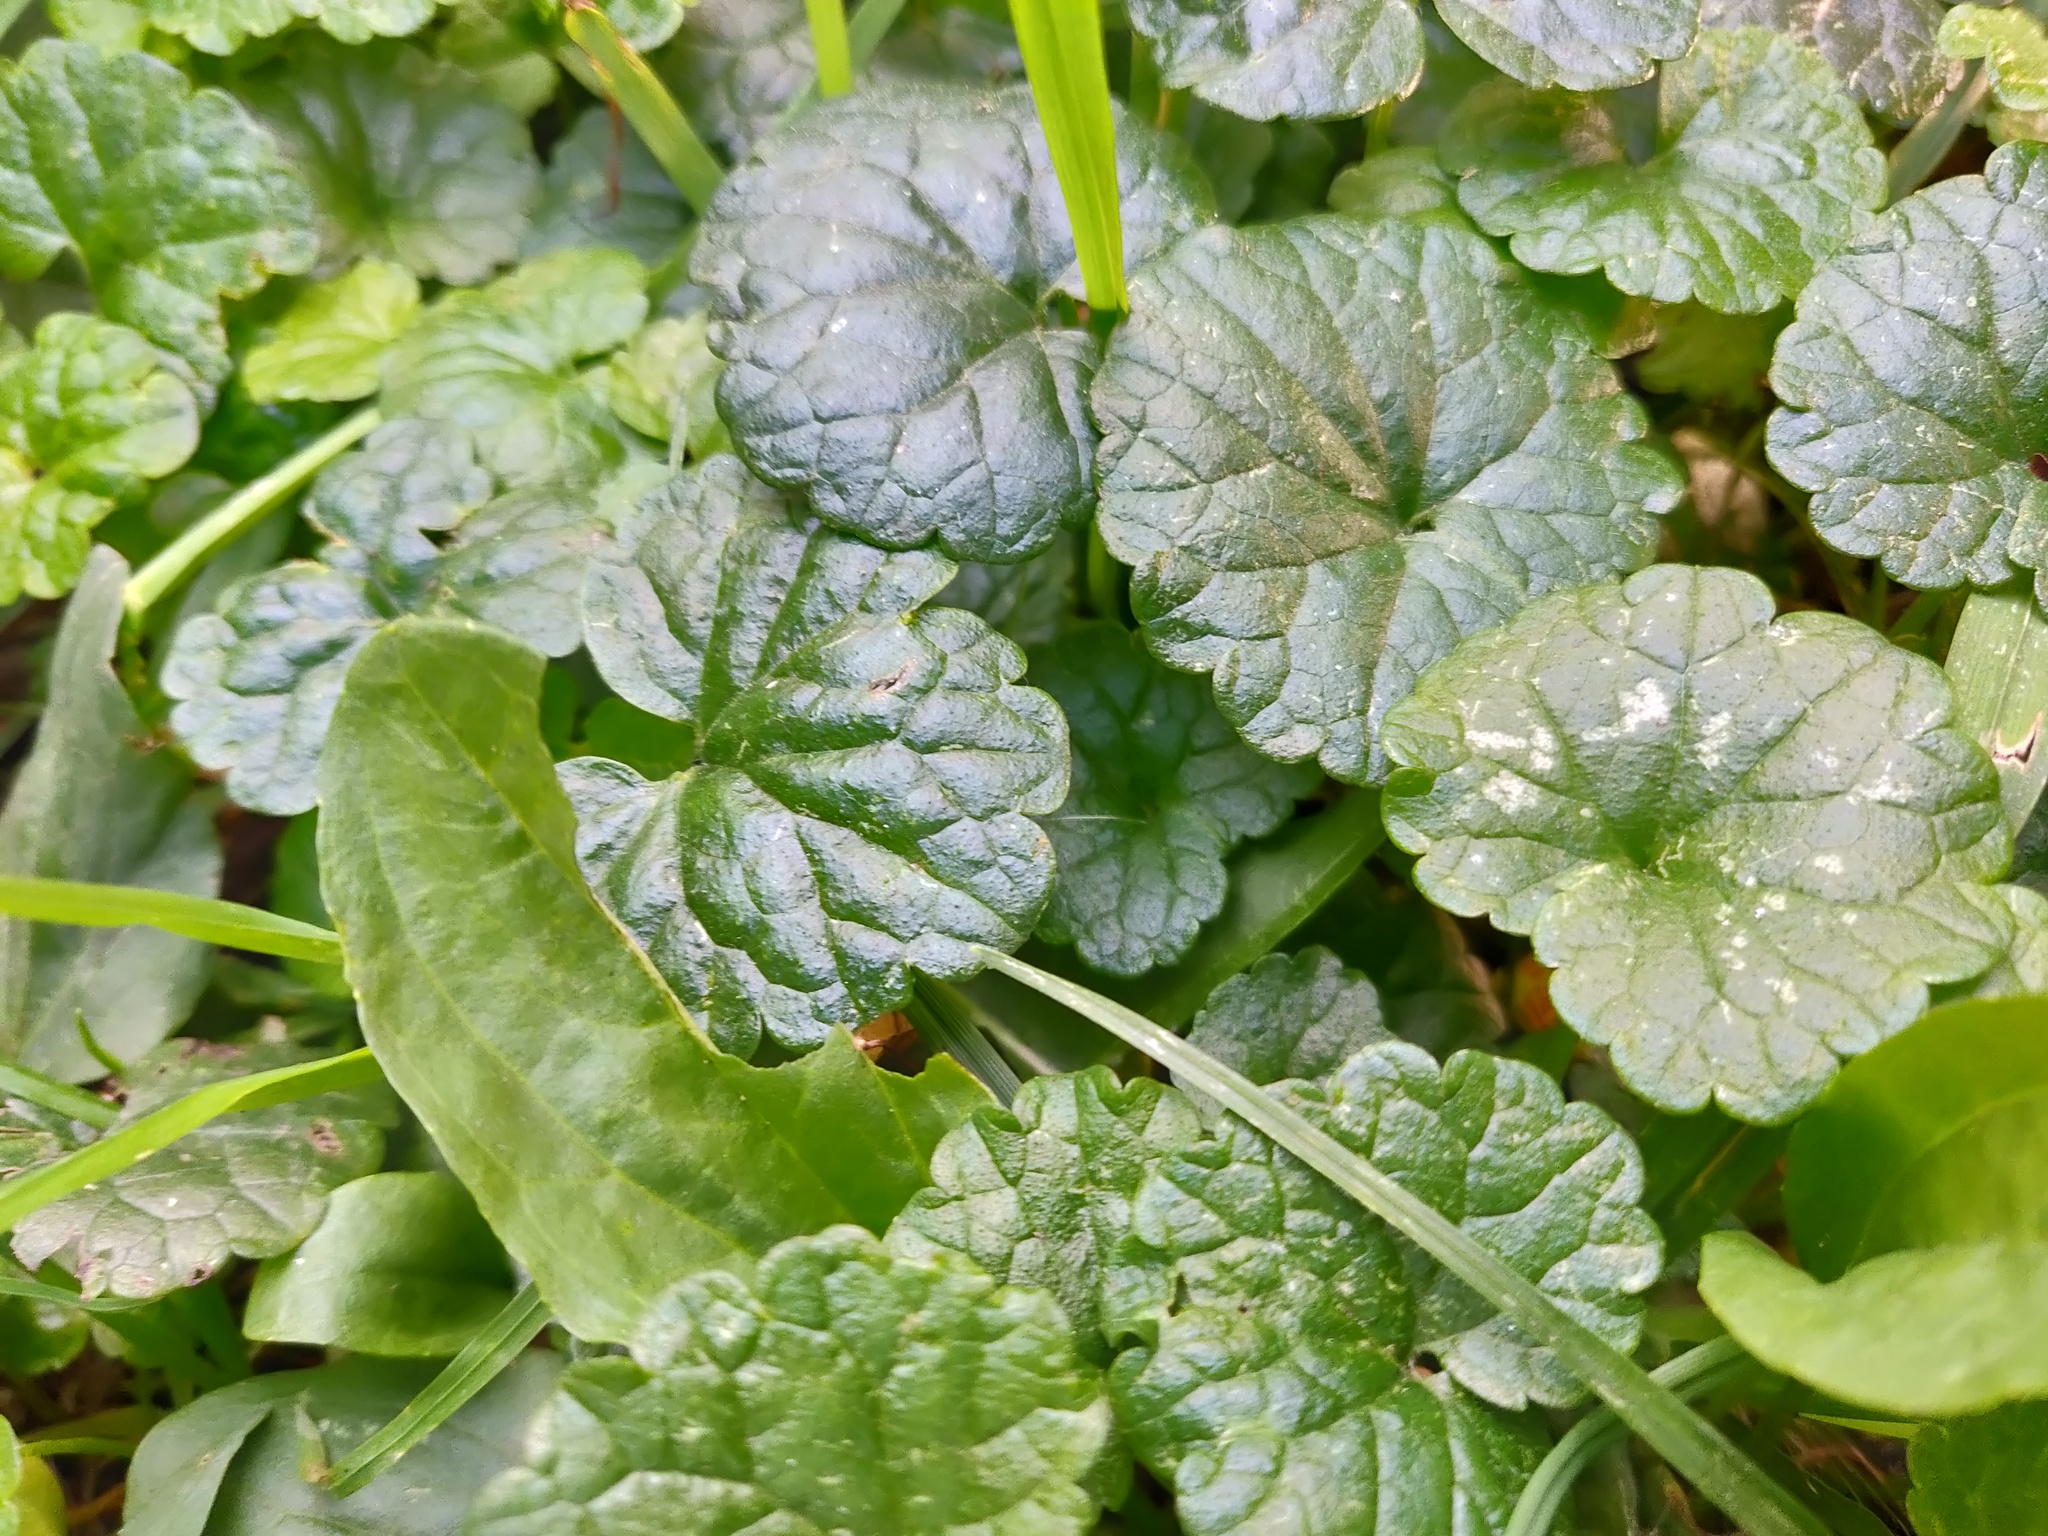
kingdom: Plantae
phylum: Tracheophyta
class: Magnoliopsida
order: Lamiales
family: Lamiaceae
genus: Glechoma
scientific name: Glechoma hederacea
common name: Ground ivy
